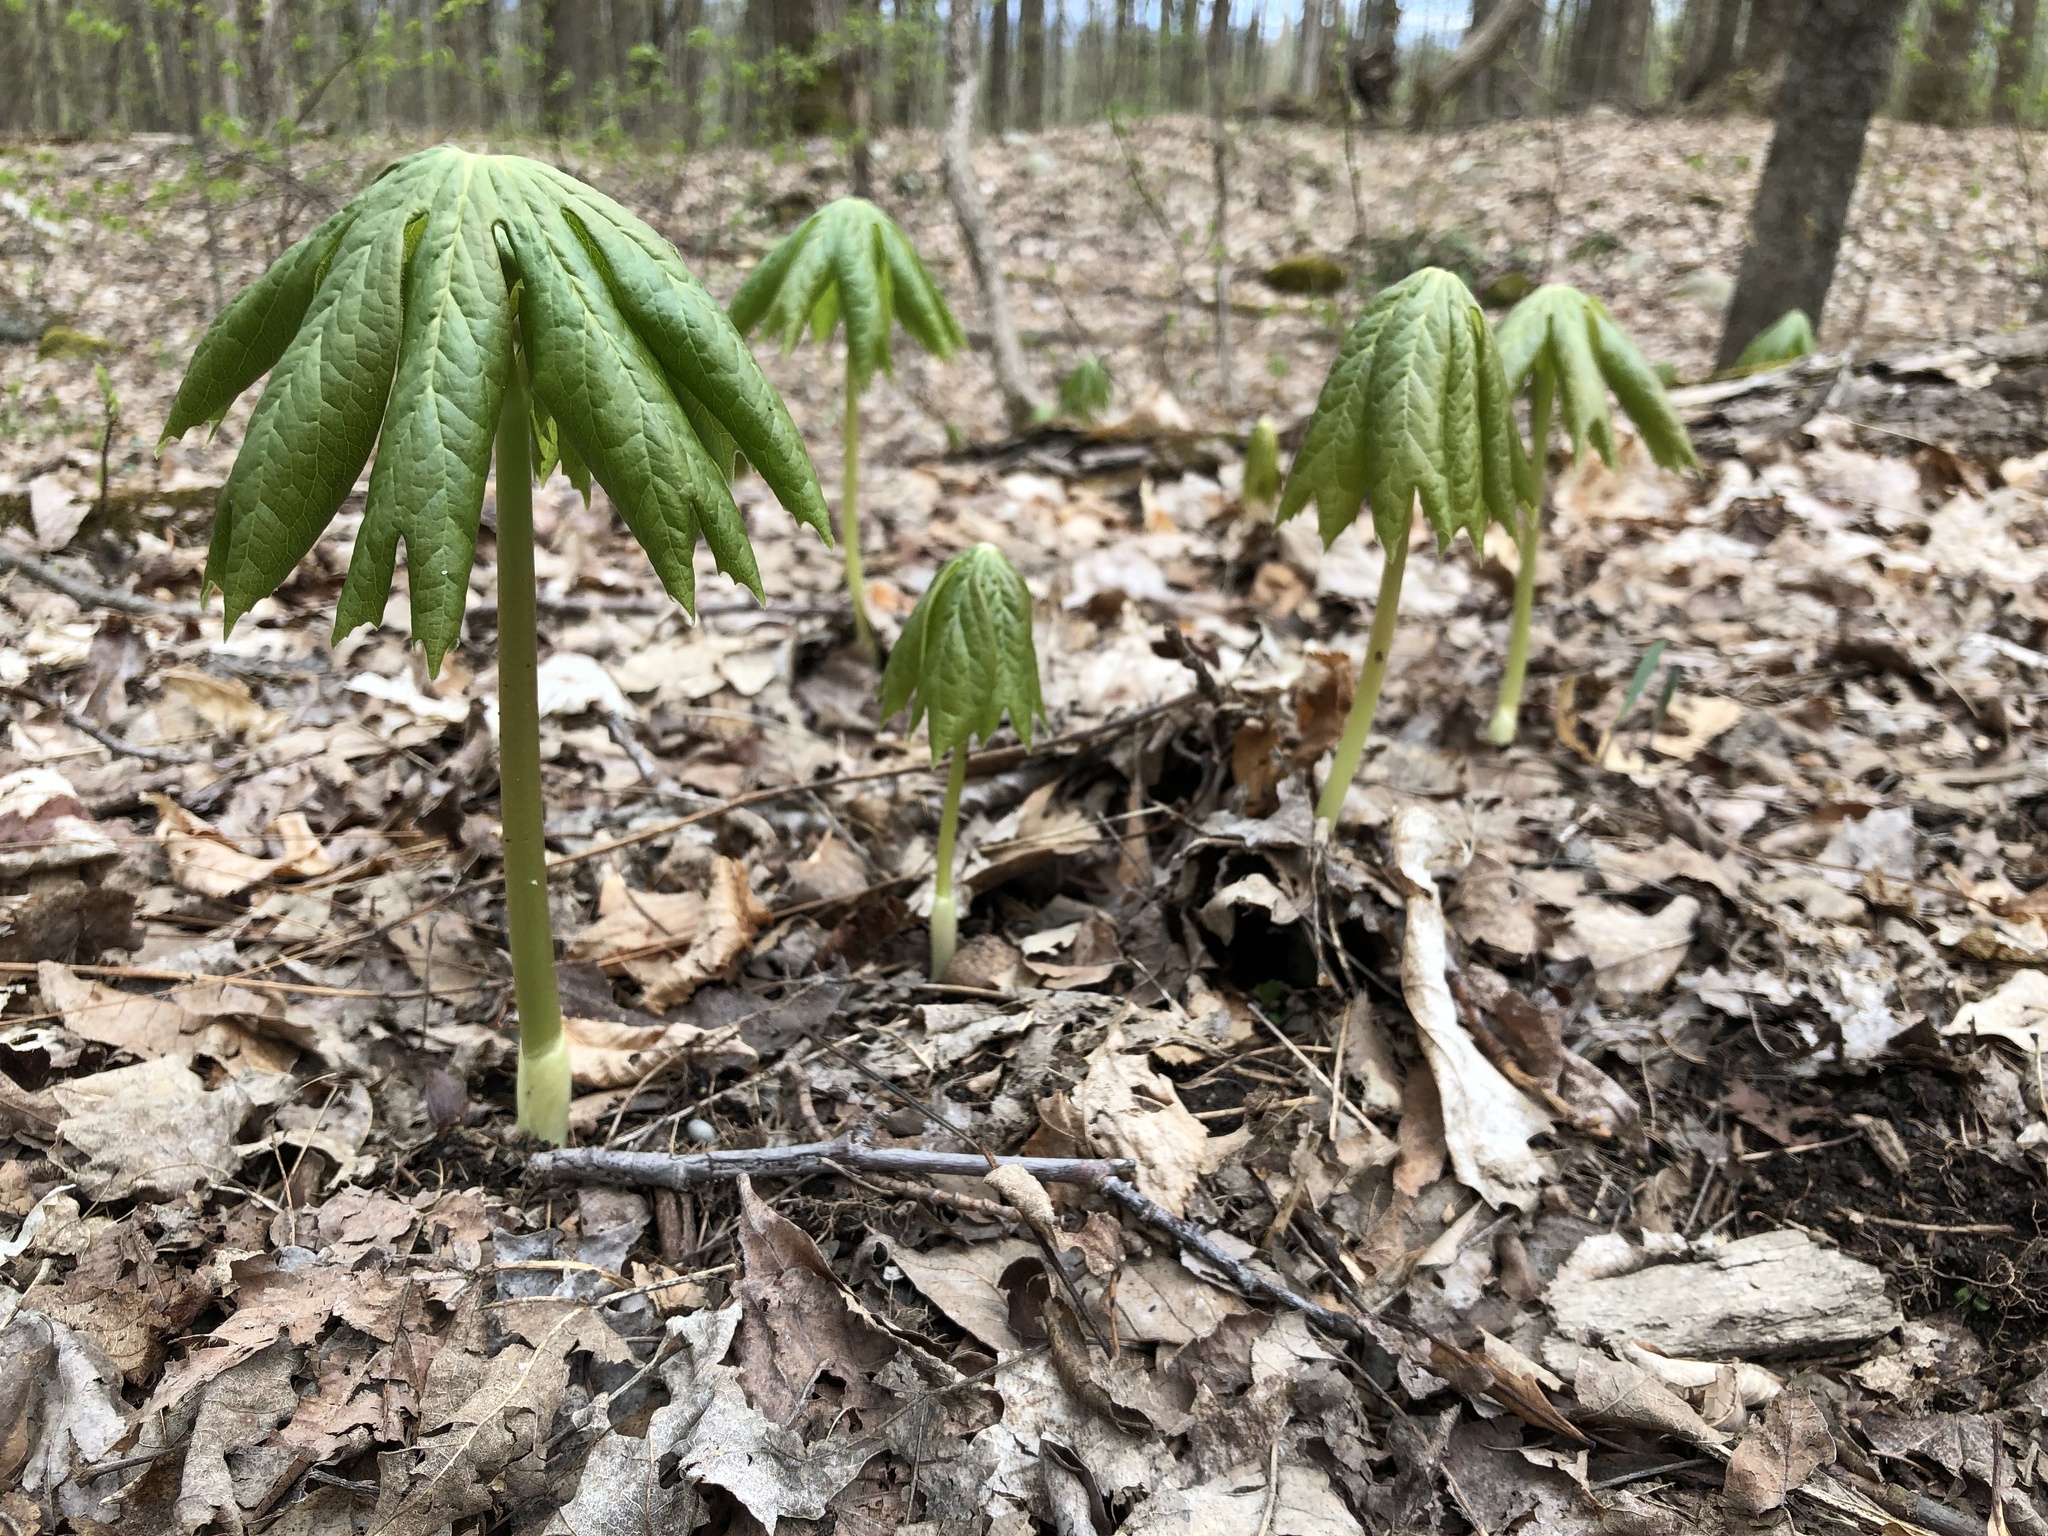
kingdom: Plantae
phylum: Tracheophyta
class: Magnoliopsida
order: Ranunculales
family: Berberidaceae
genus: Podophyllum
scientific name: Podophyllum peltatum
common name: Wild mandrake
